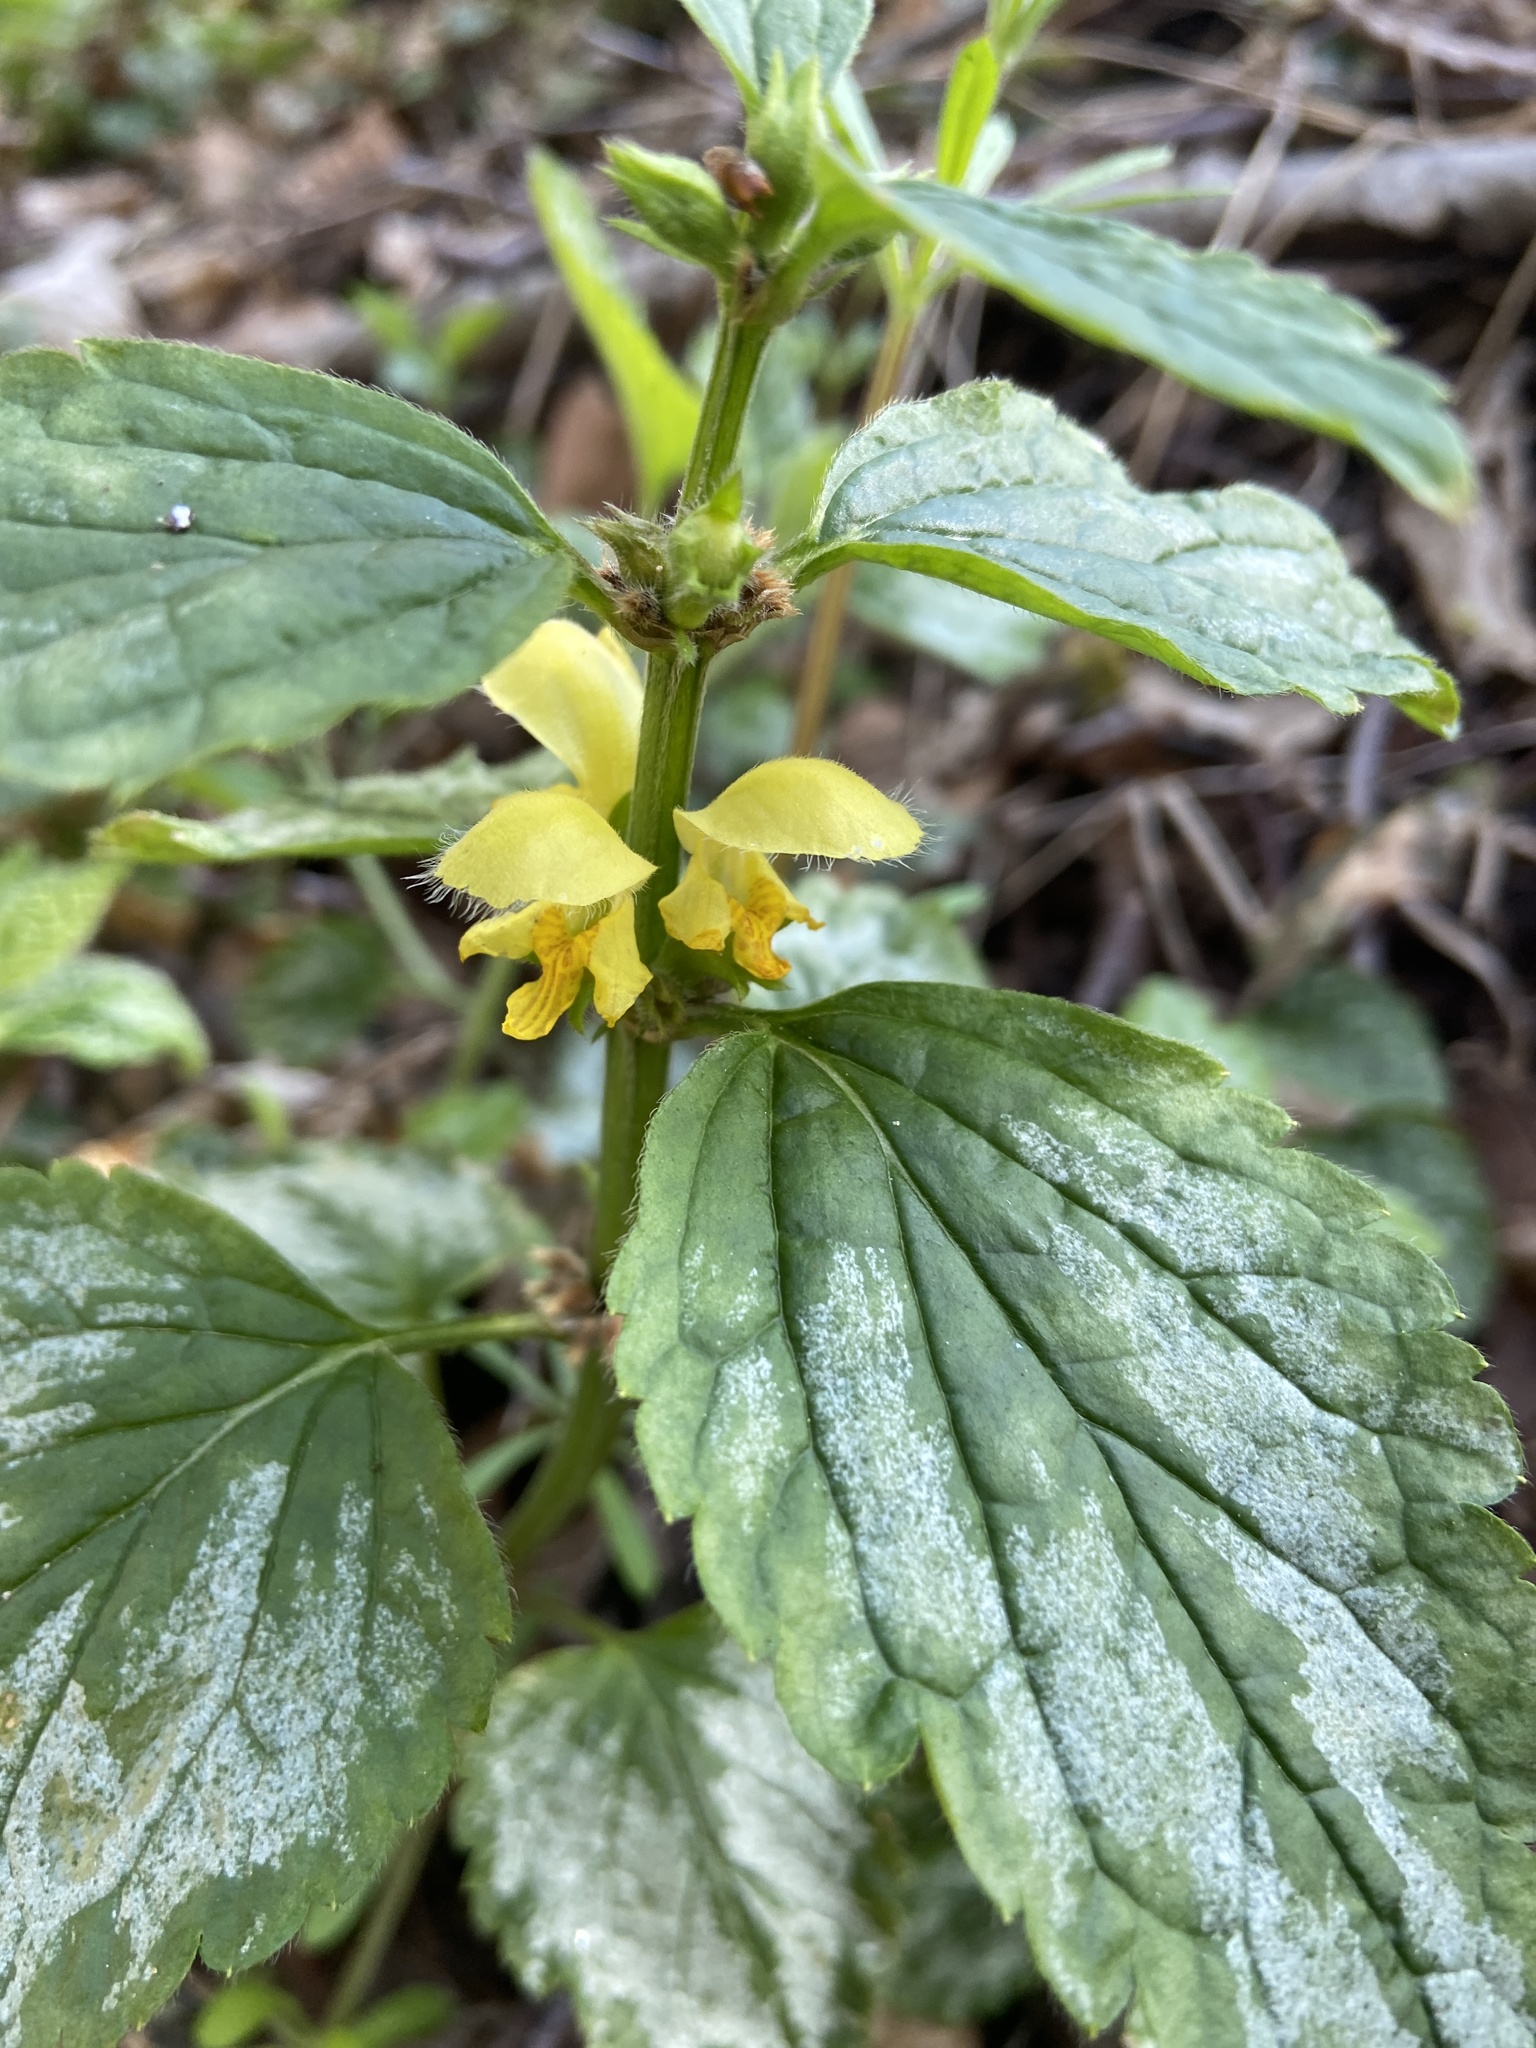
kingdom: Plantae
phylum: Tracheophyta
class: Magnoliopsida
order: Lamiales
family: Lamiaceae
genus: Lamium
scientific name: Lamium galeobdolon
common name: Yellow archangel
